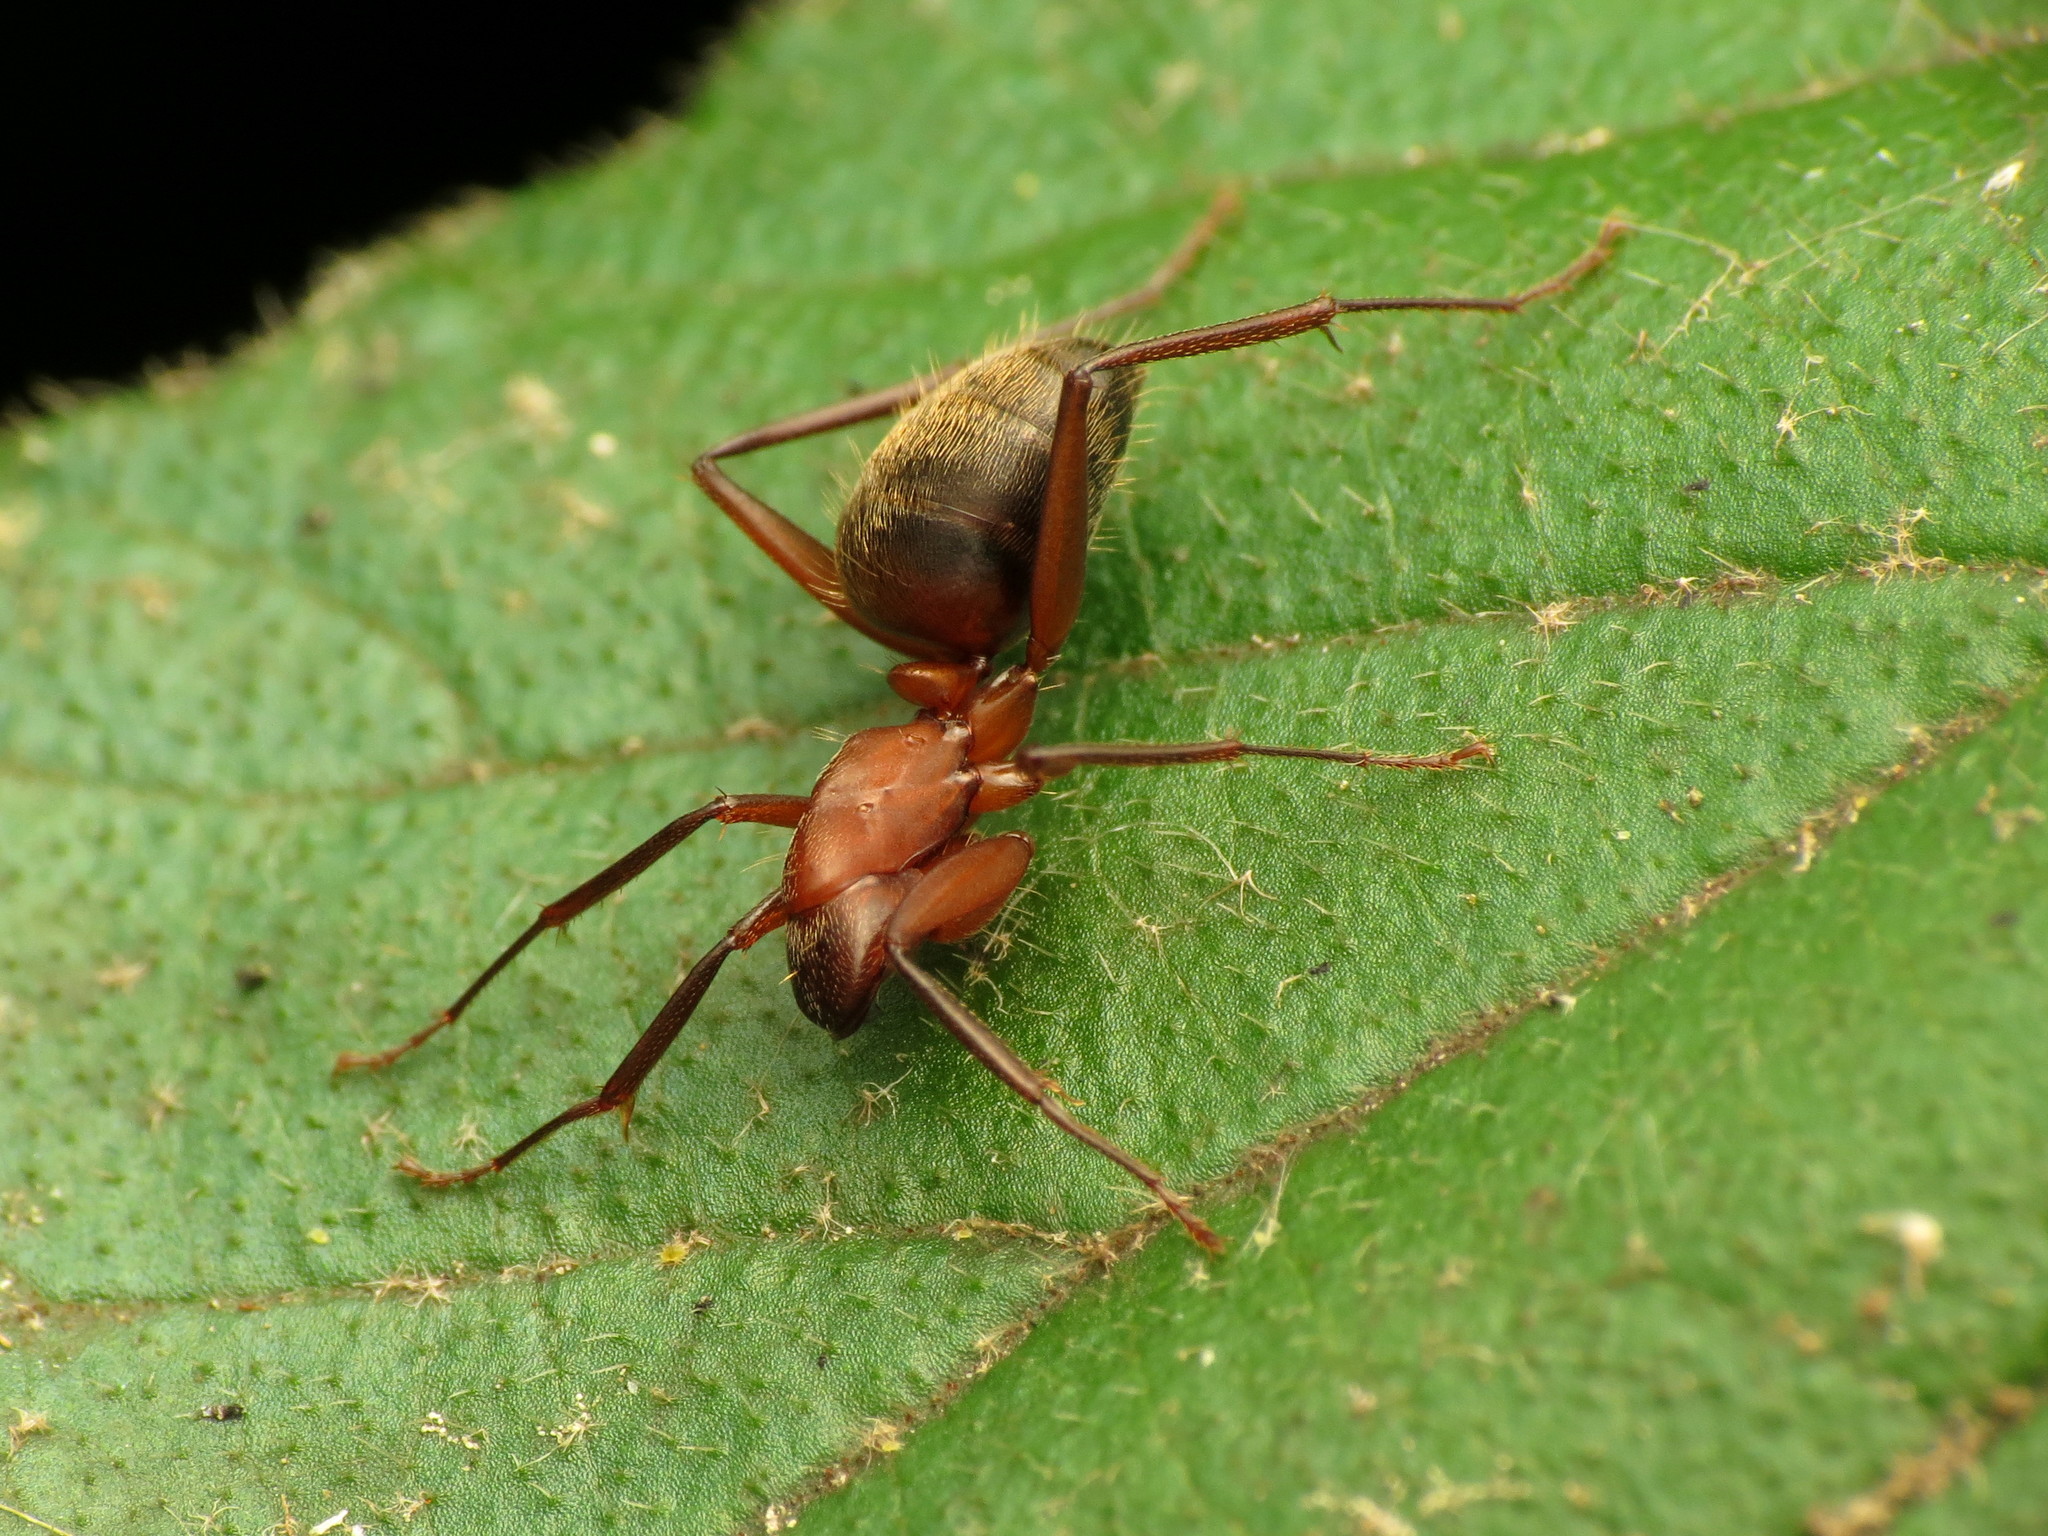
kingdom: Animalia
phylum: Arthropoda
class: Insecta
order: Hymenoptera
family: Formicidae
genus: Camponotus
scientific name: Camponotus chromaiodes
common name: Red carpenter ant
